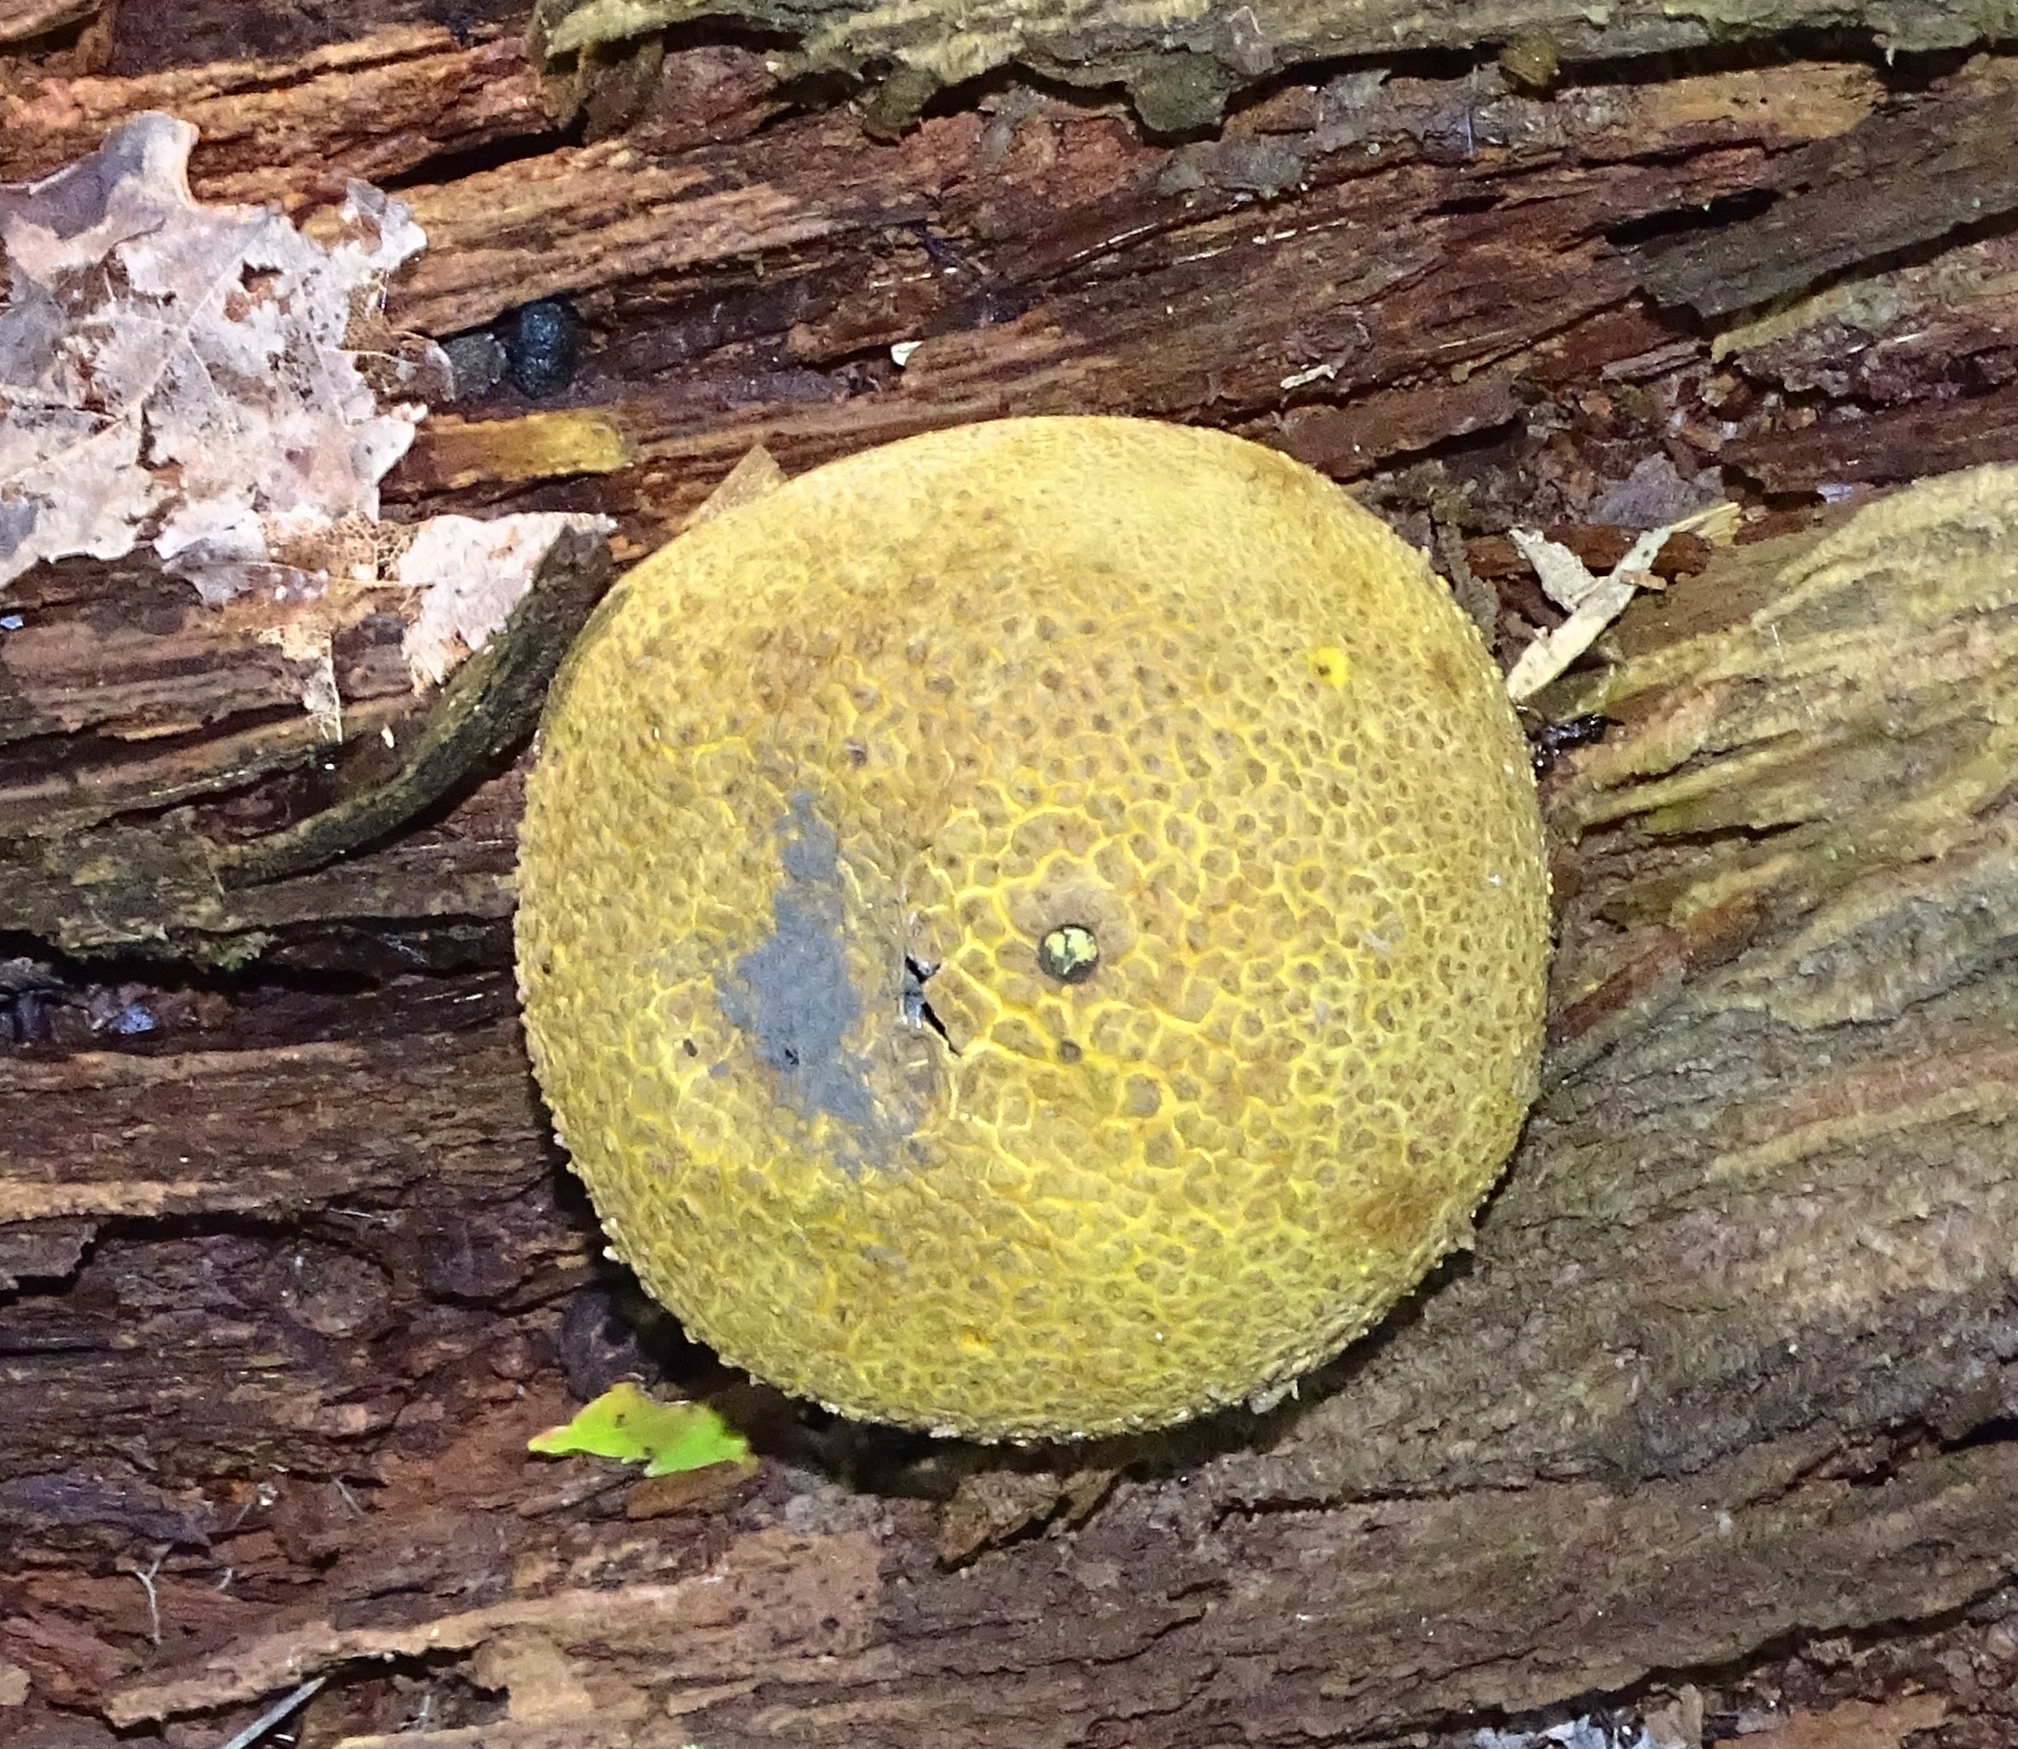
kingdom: Fungi
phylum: Basidiomycota
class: Agaricomycetes
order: Boletales
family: Sclerodermataceae
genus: Scleroderma
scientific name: Scleroderma citrinum
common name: Common earthball
